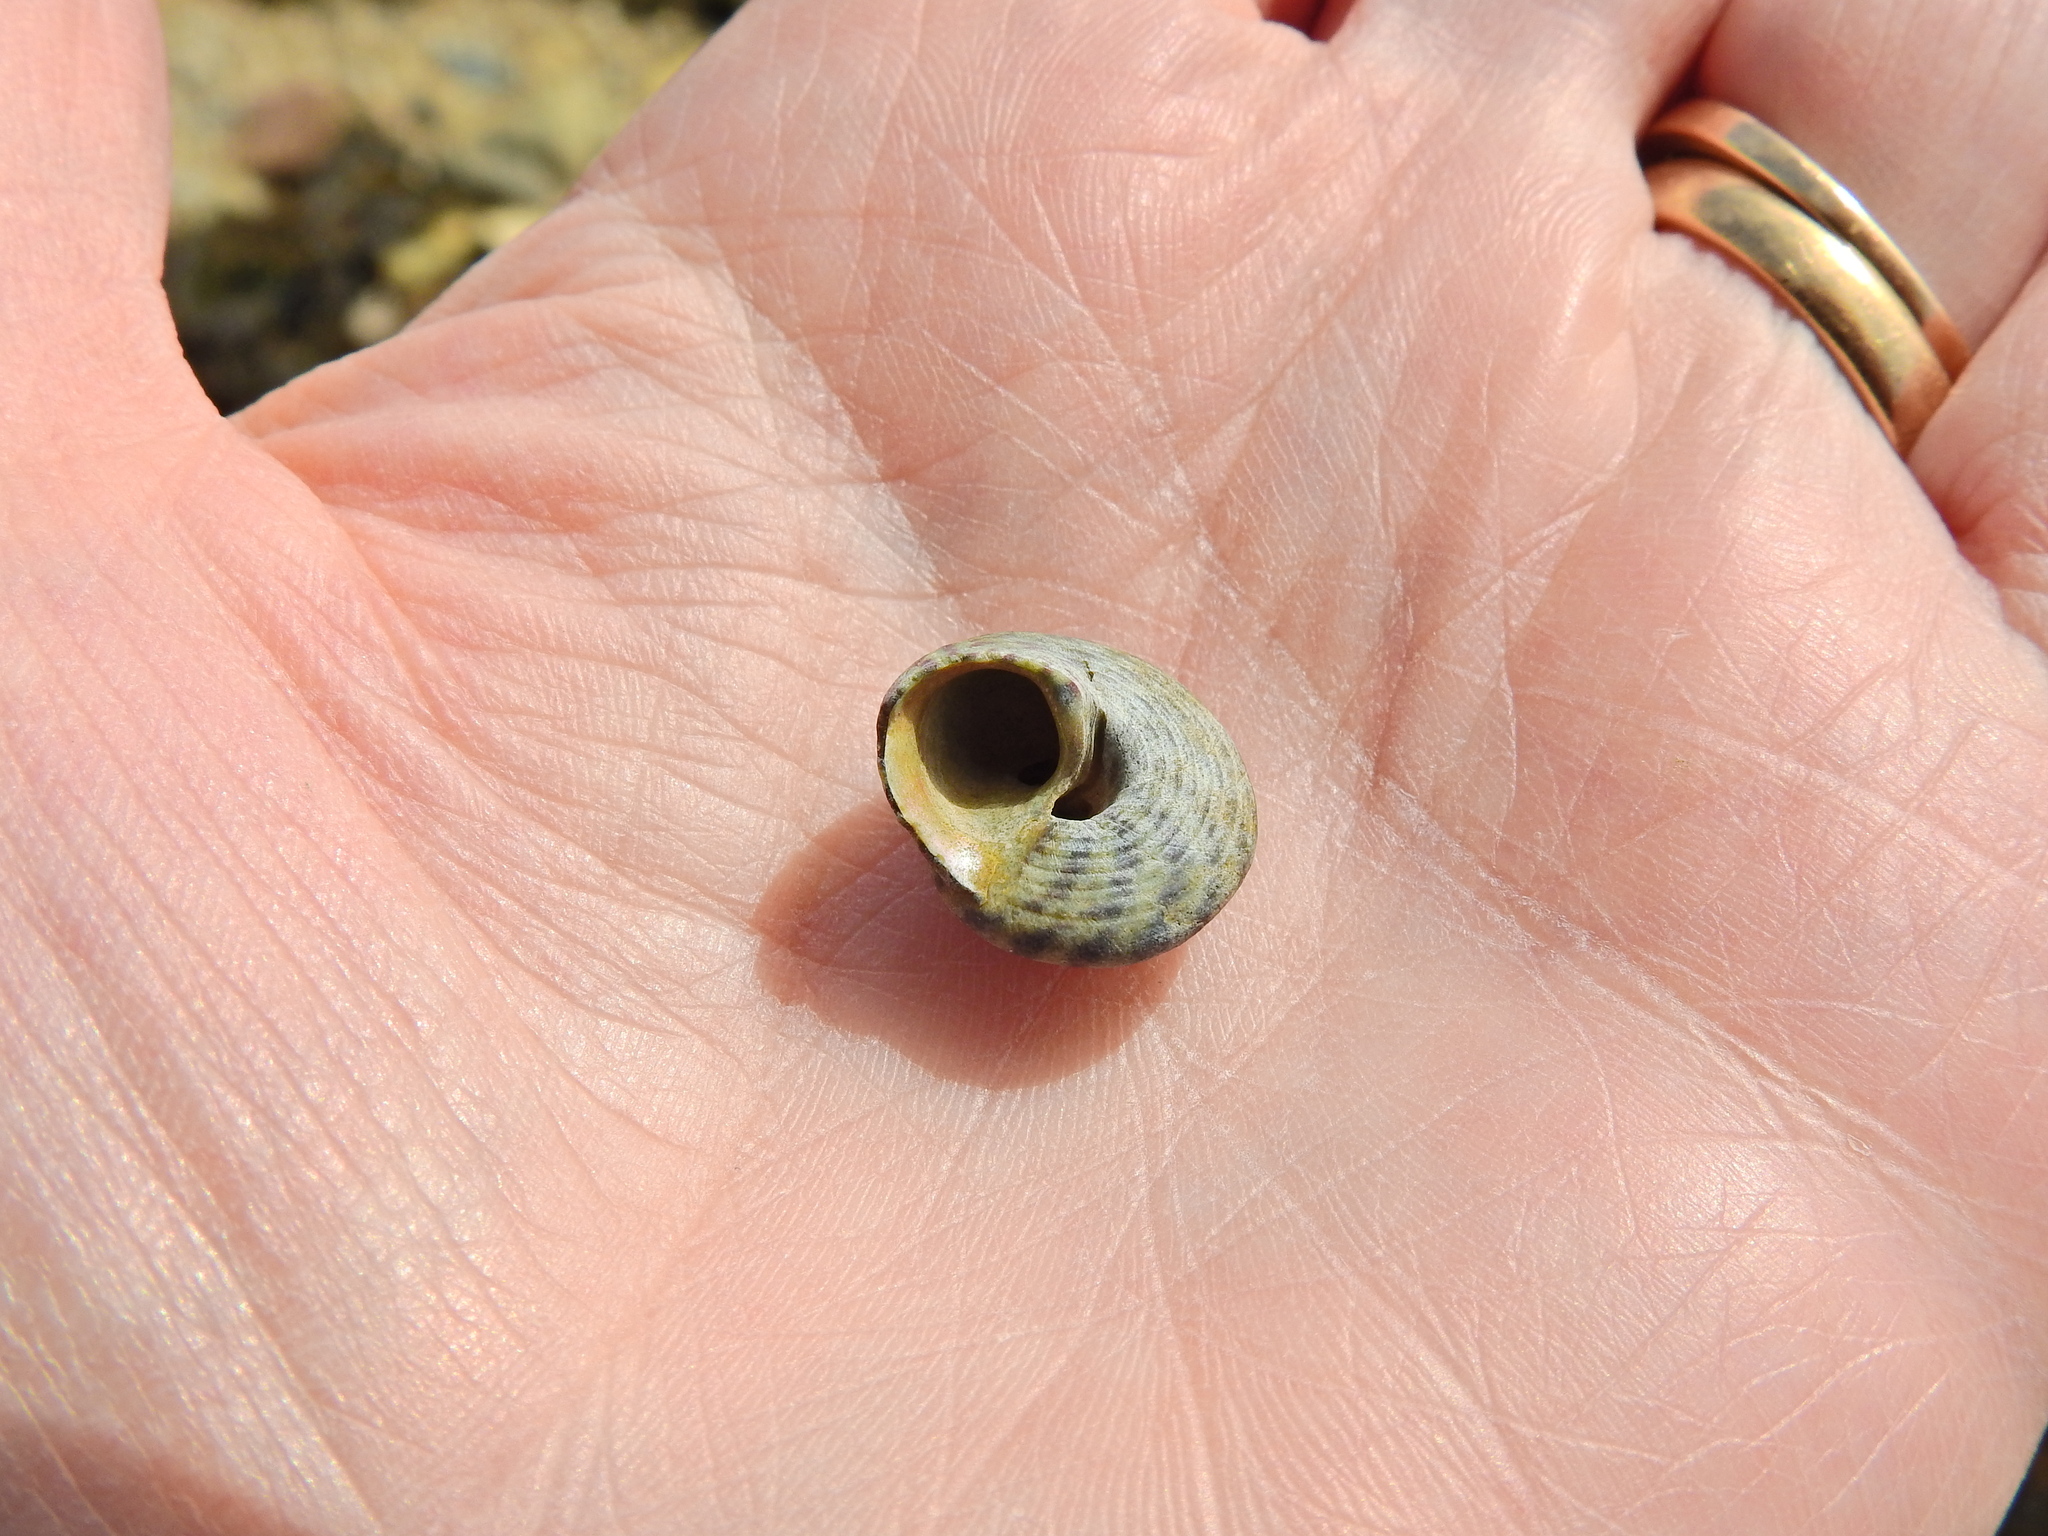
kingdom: Animalia
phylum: Mollusca
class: Gastropoda
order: Trochida
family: Trochidae
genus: Steromphala
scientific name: Steromphala umbilicalis
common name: Flat top shell
